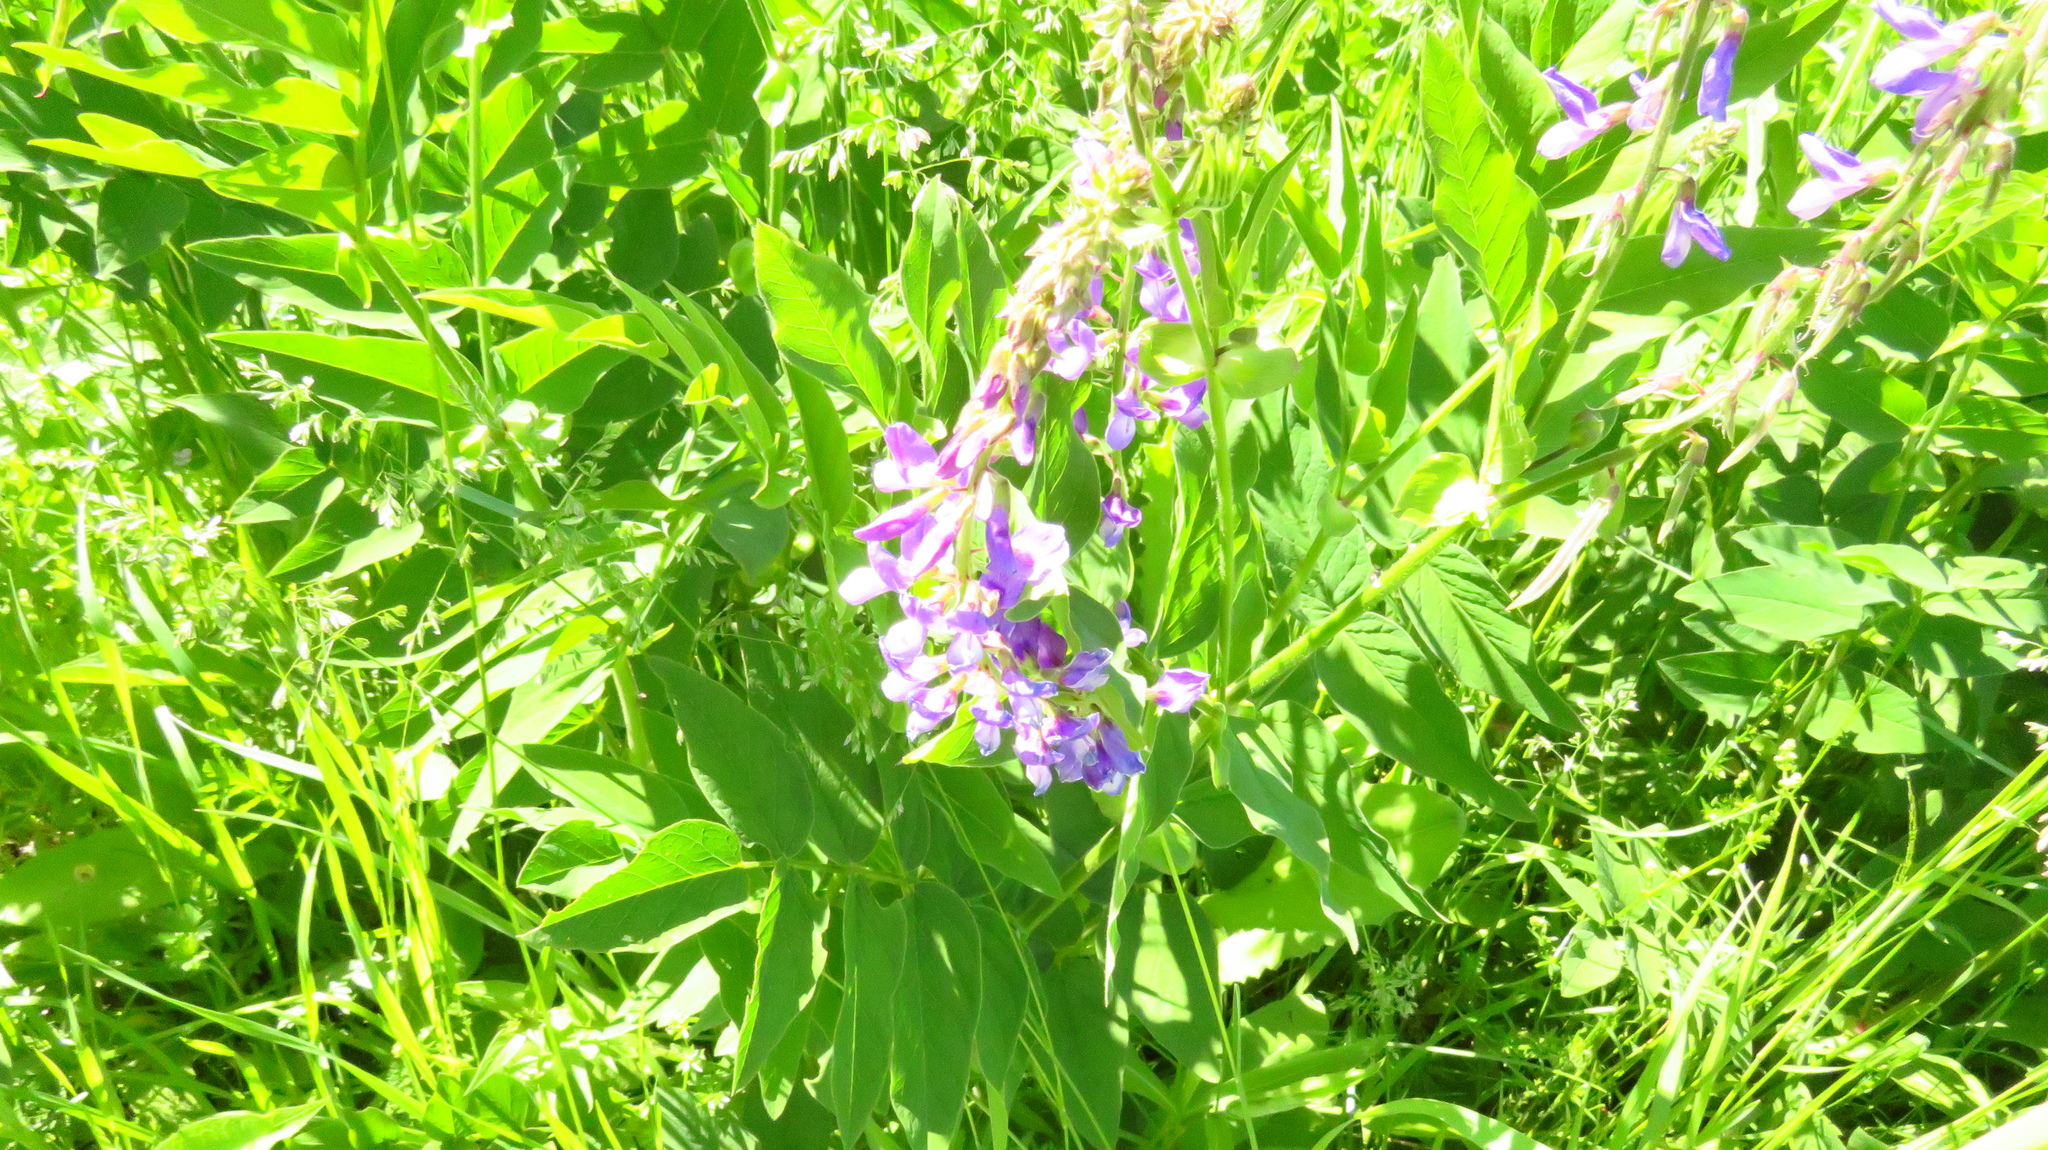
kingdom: Plantae
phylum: Tracheophyta
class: Magnoliopsida
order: Fabales
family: Fabaceae
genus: Galega
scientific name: Galega orientalis
